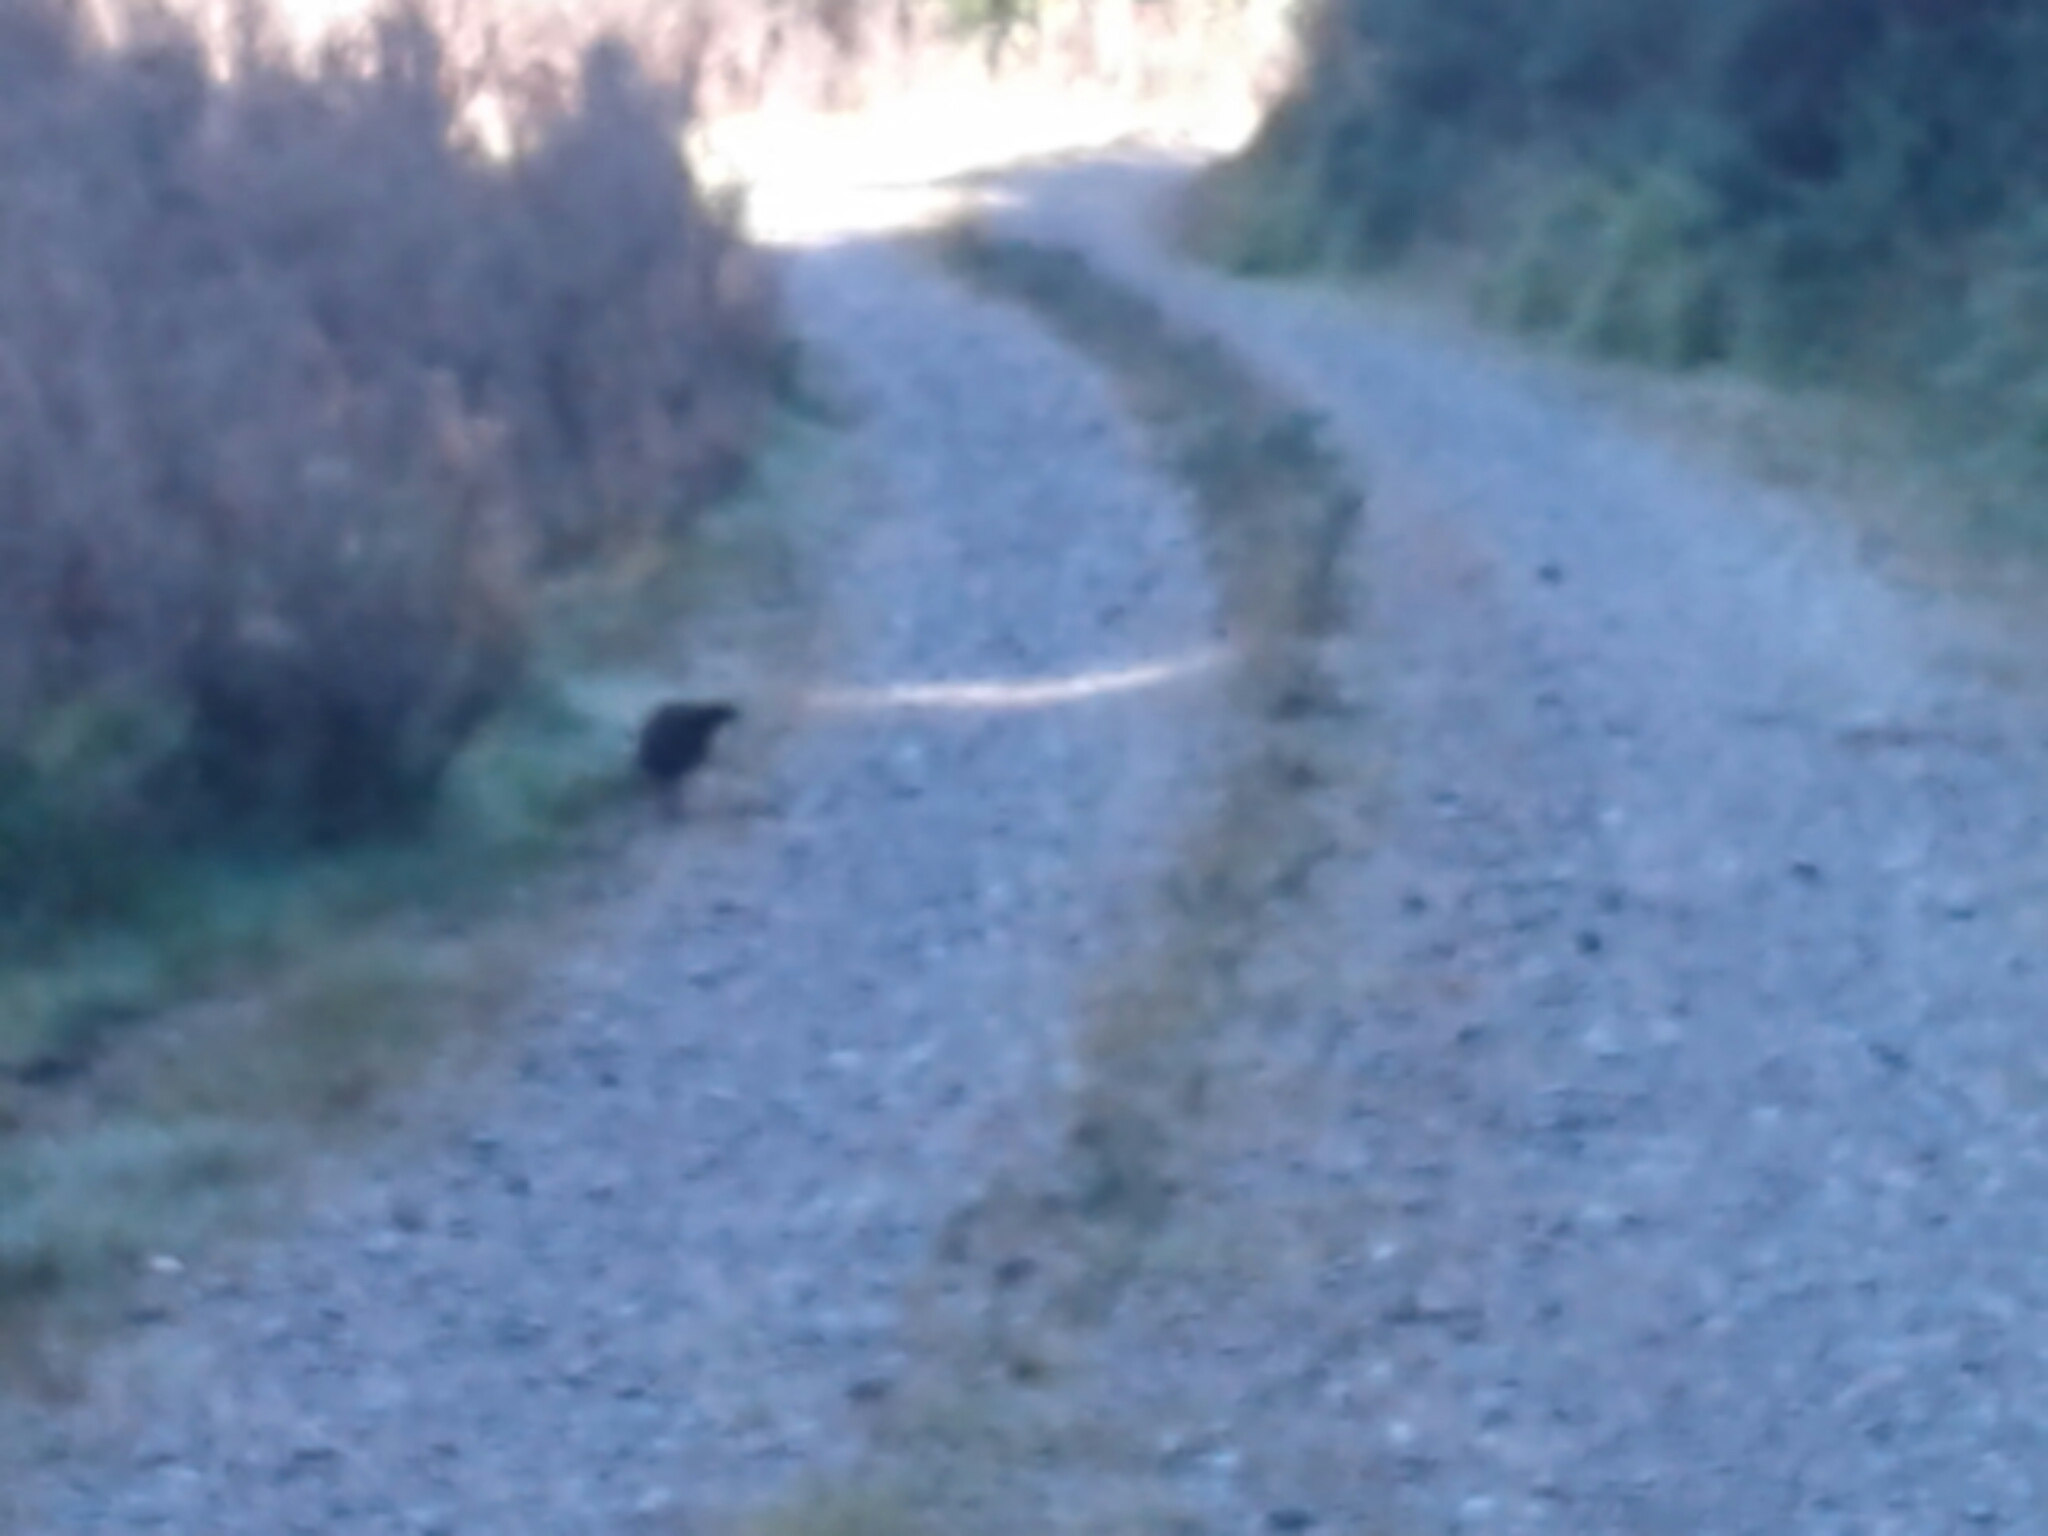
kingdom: Animalia
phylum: Chordata
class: Aves
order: Gruiformes
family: Rallidae
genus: Gallirallus
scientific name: Gallirallus australis
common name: Weka
